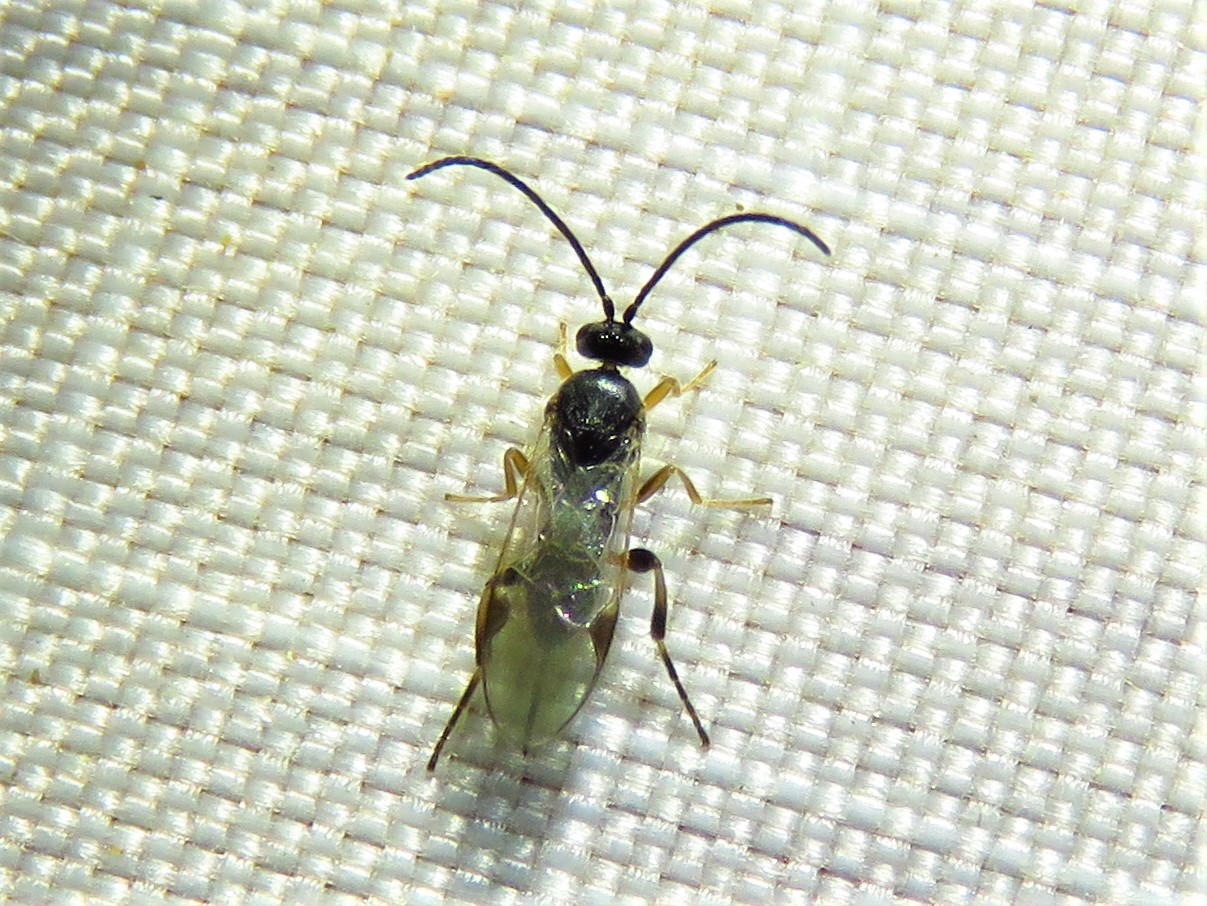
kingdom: Animalia
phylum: Arthropoda
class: Insecta
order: Hymenoptera
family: Braconidae
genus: Dolichogenidea
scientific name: Dolichogenidea
